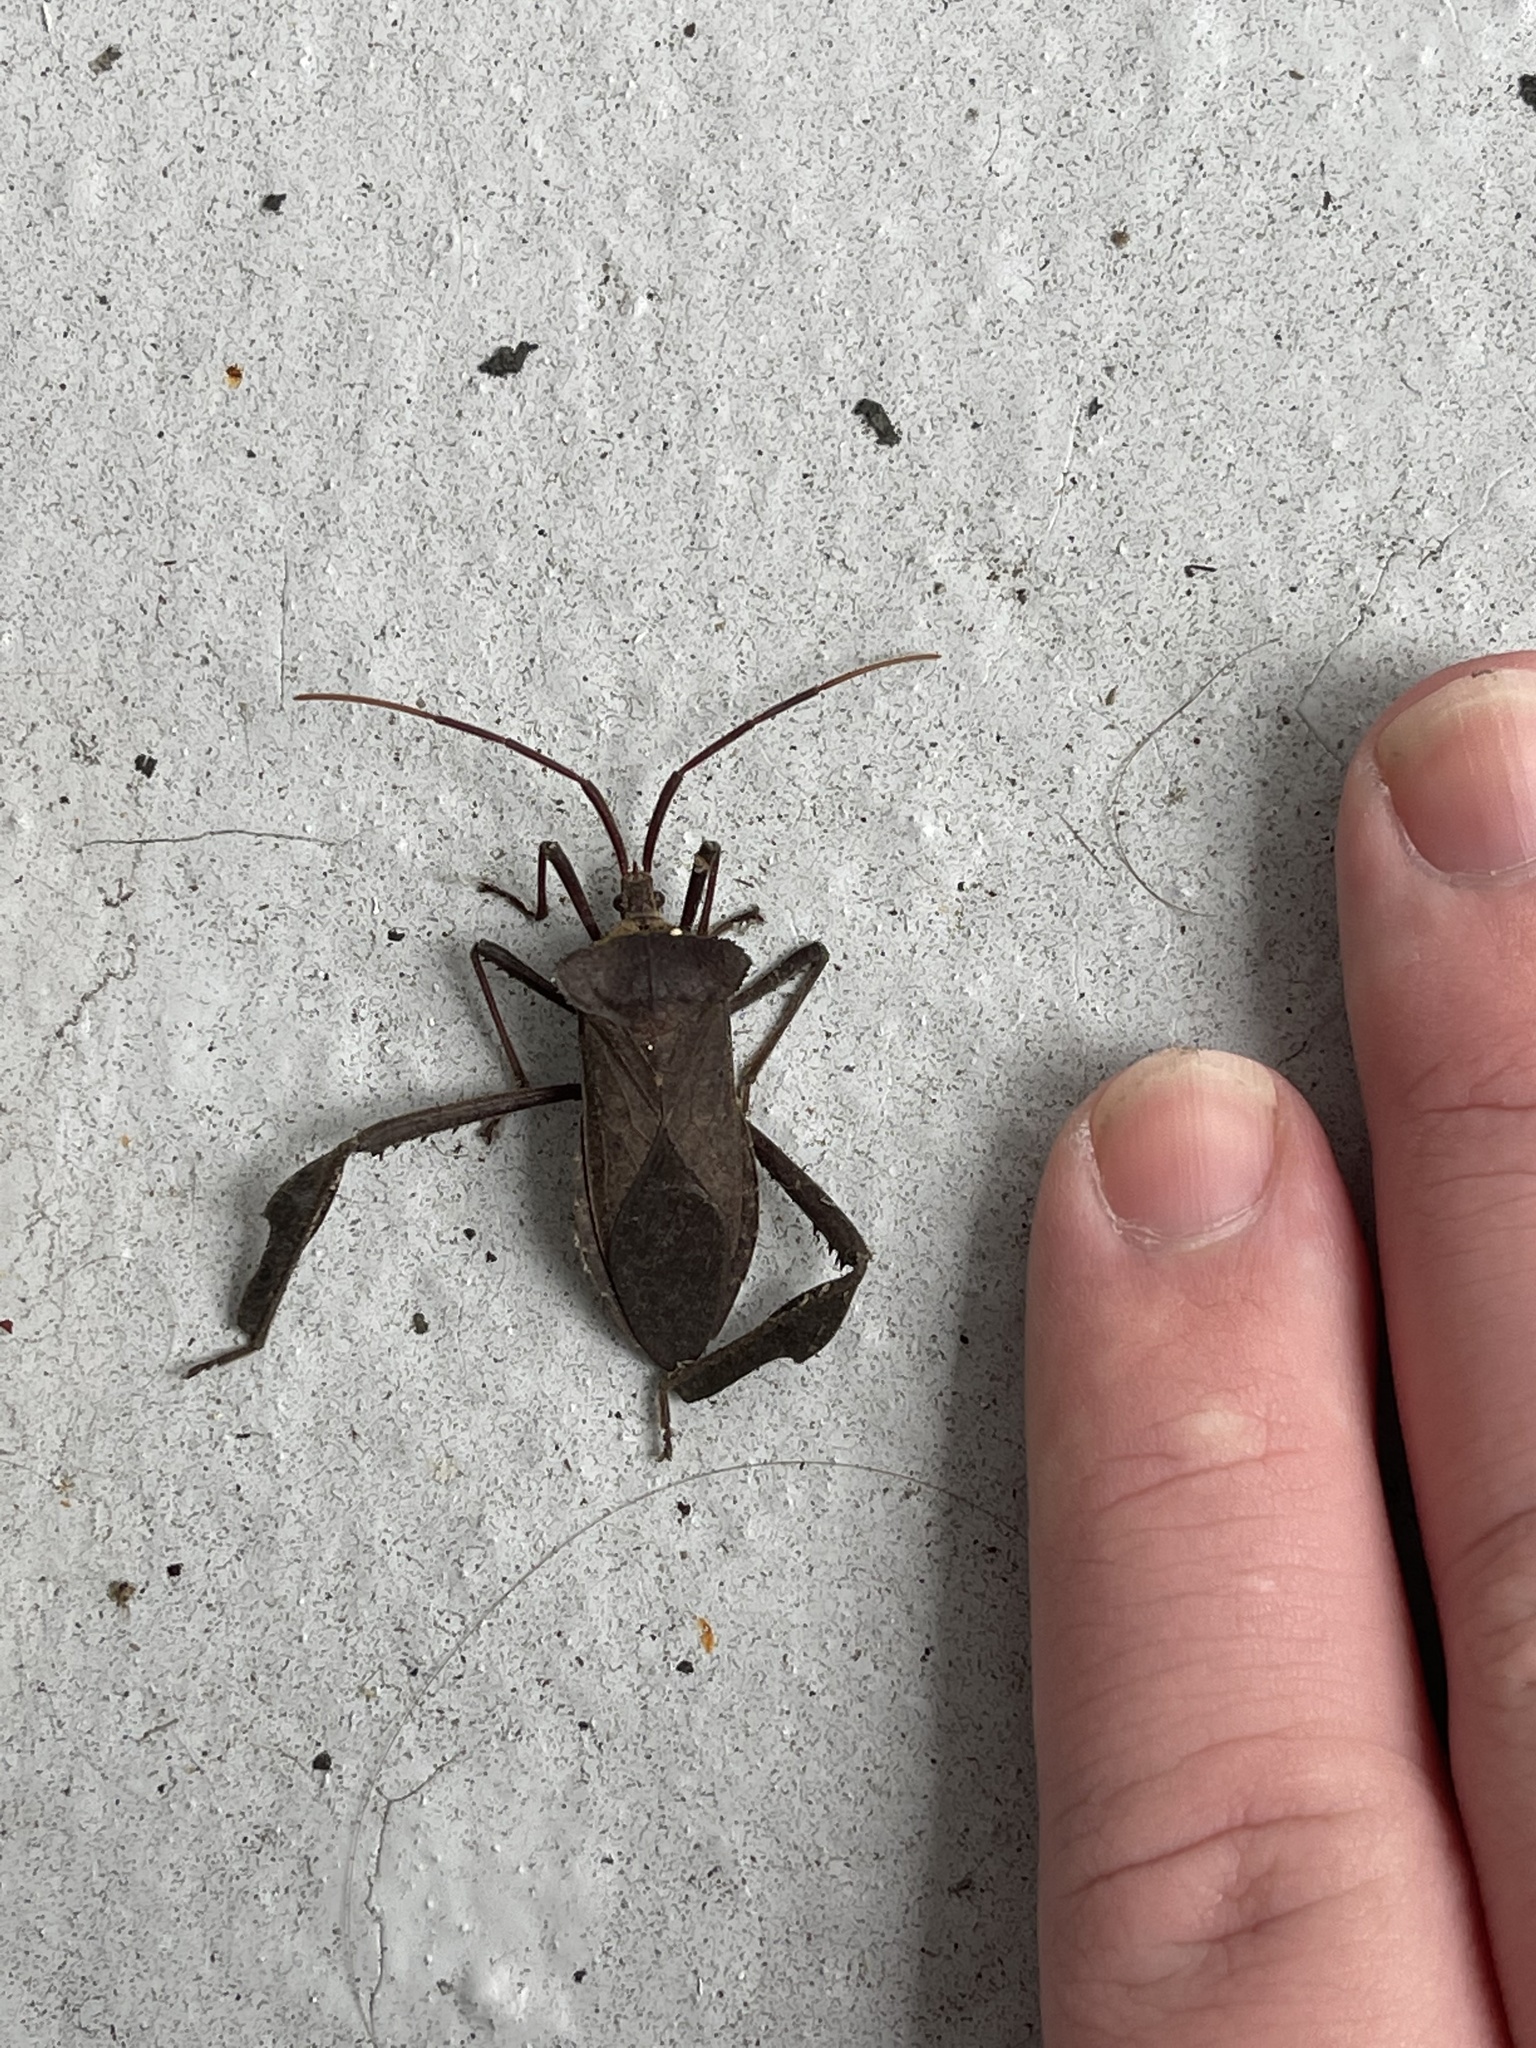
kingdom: Animalia
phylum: Arthropoda
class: Insecta
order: Hemiptera
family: Coreidae
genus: Acanthocephala
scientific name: Acanthocephala declivis
